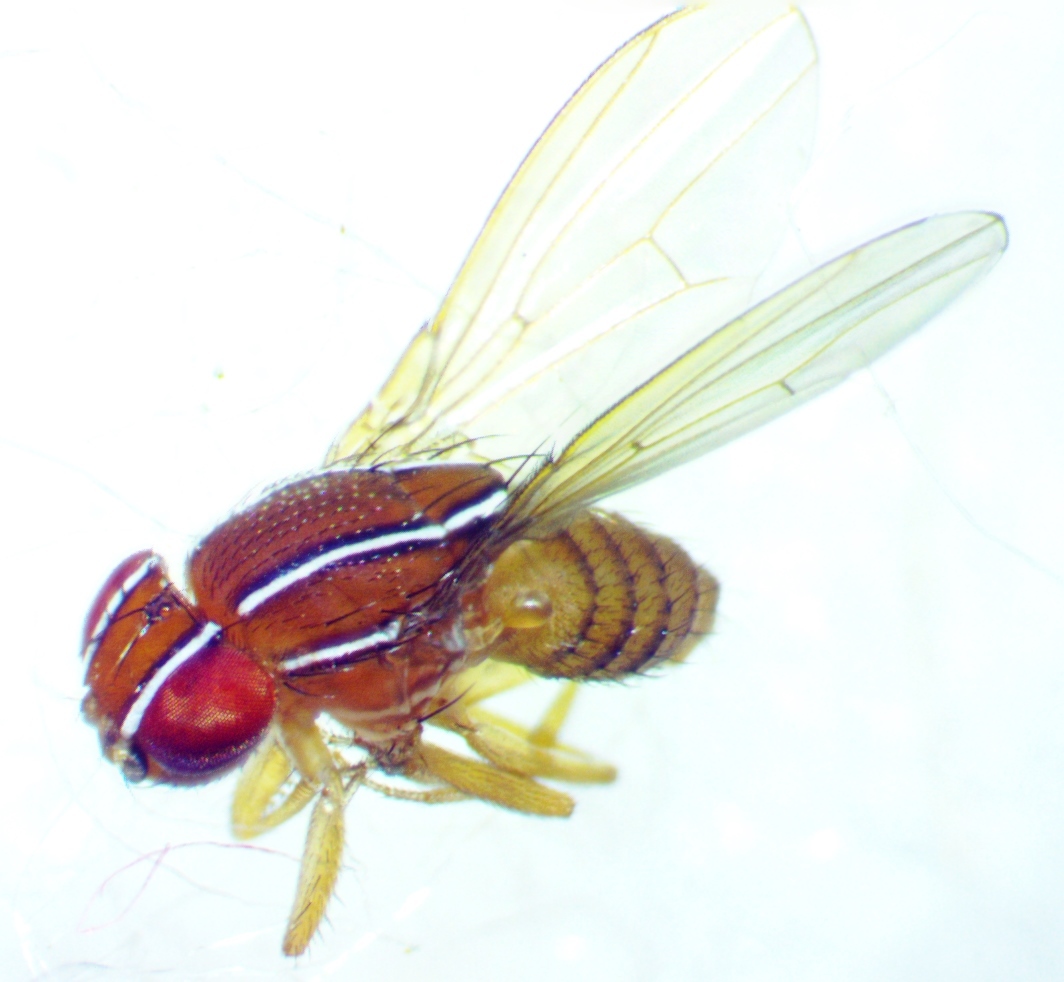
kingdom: Animalia
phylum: Arthropoda
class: Insecta
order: Diptera
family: Drosophilidae
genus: Zaprionus
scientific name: Zaprionus indianus
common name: African fig fly
